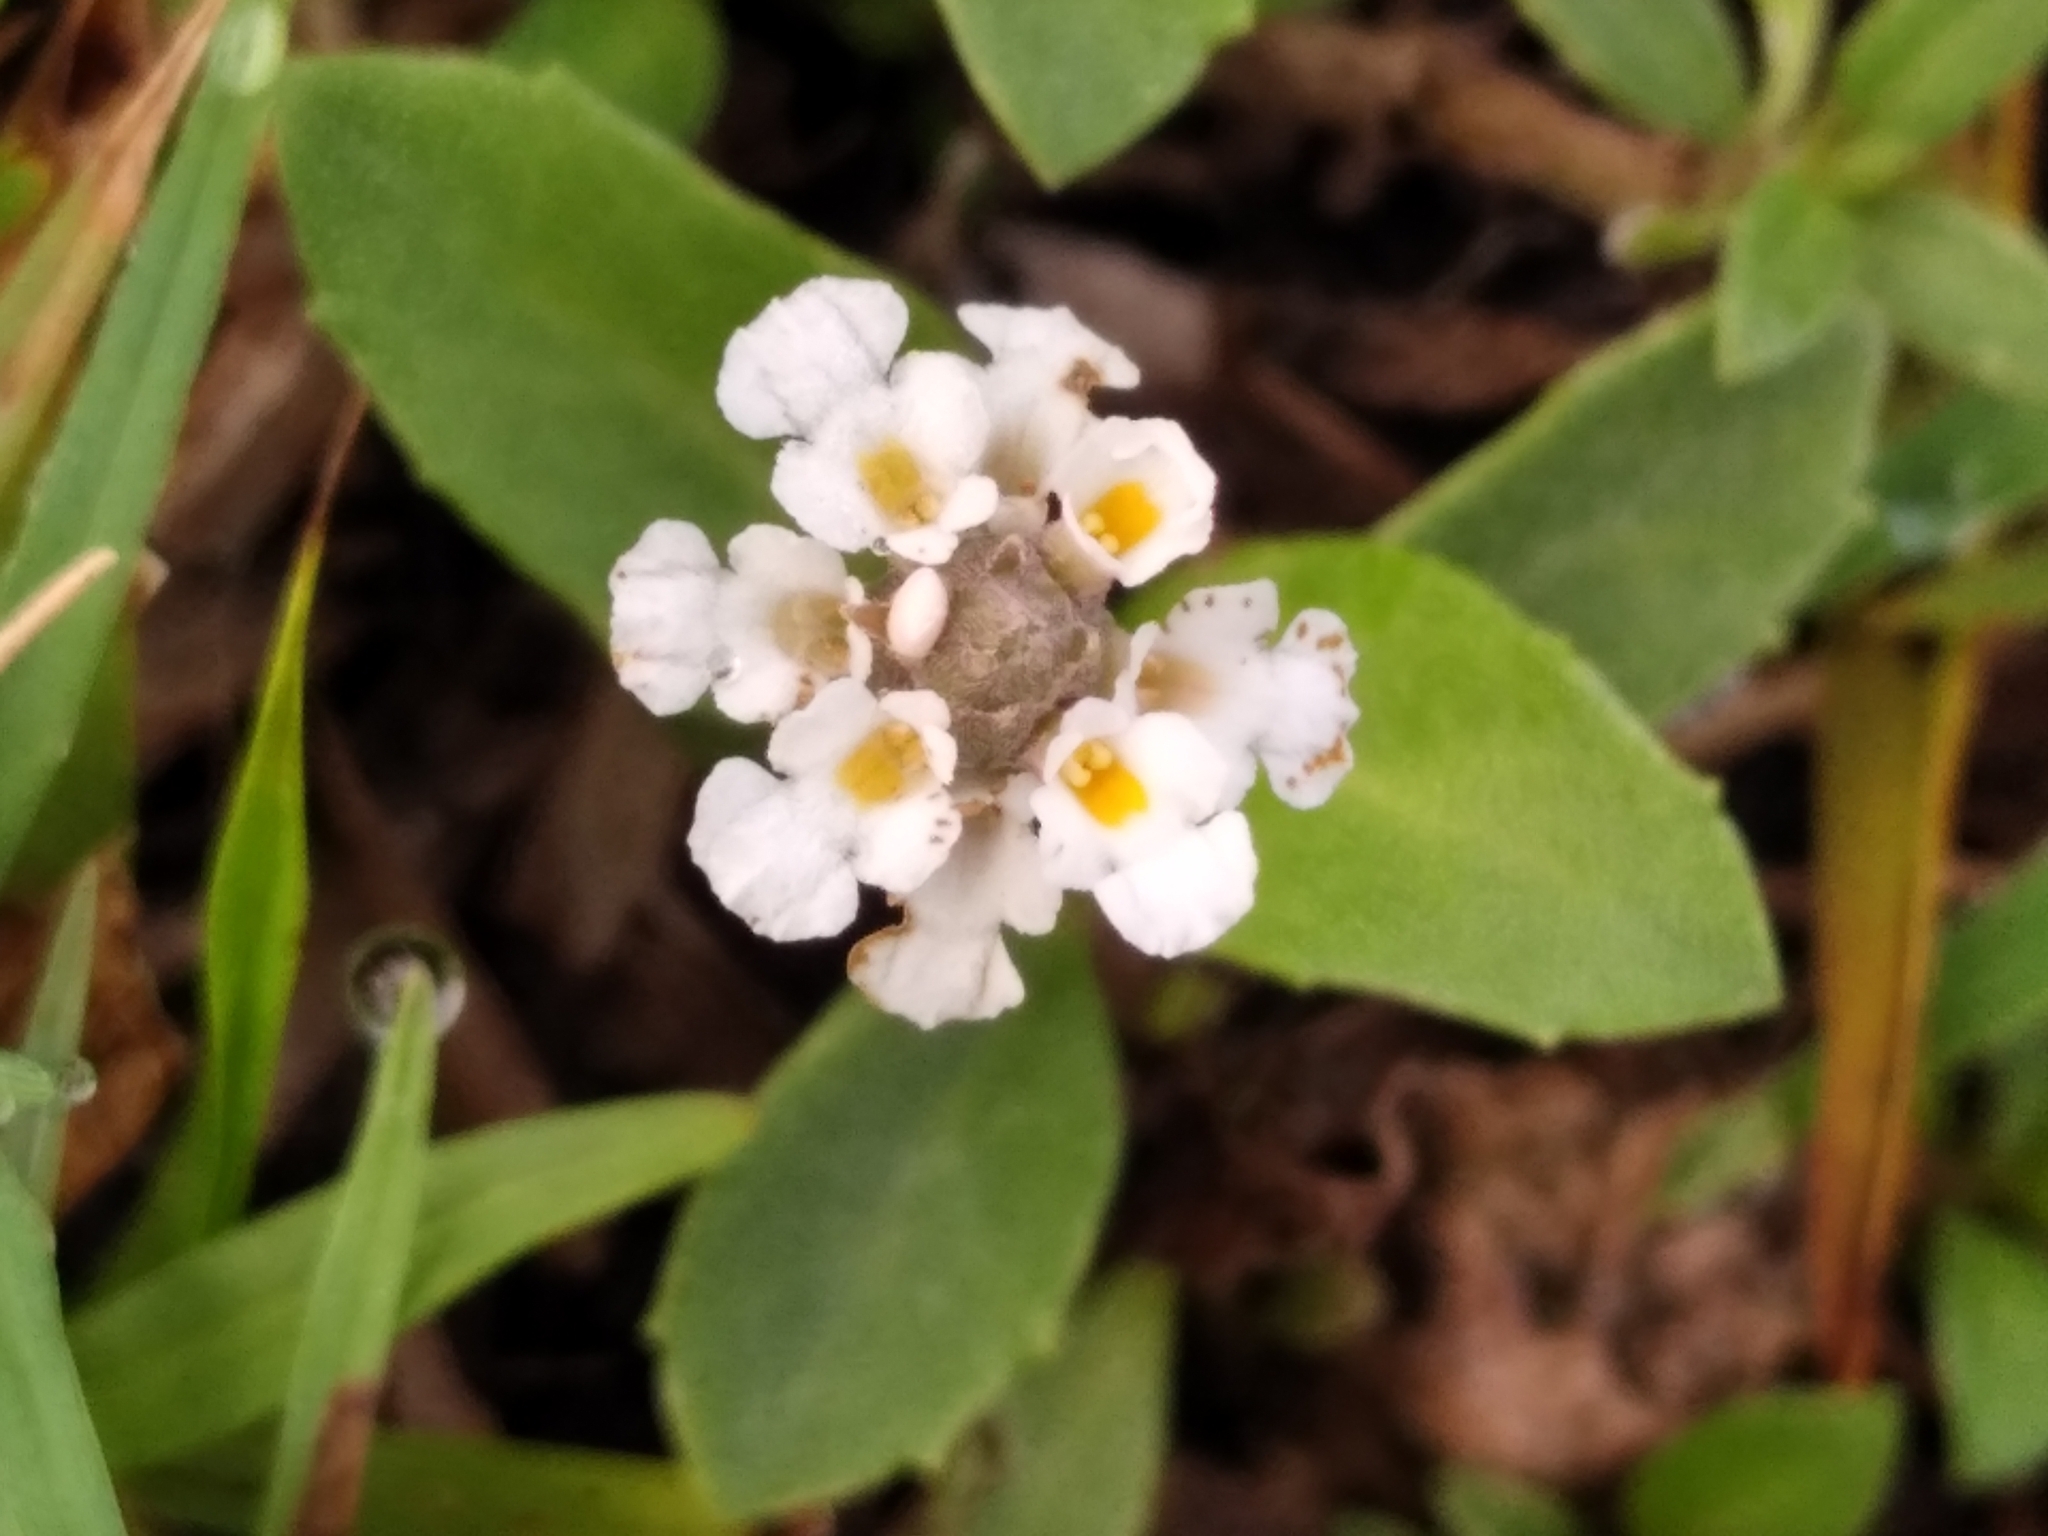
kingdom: Plantae
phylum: Tracheophyta
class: Magnoliopsida
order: Lamiales
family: Verbenaceae
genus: Phyla
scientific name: Phyla nodiflora
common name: Frogfruit
